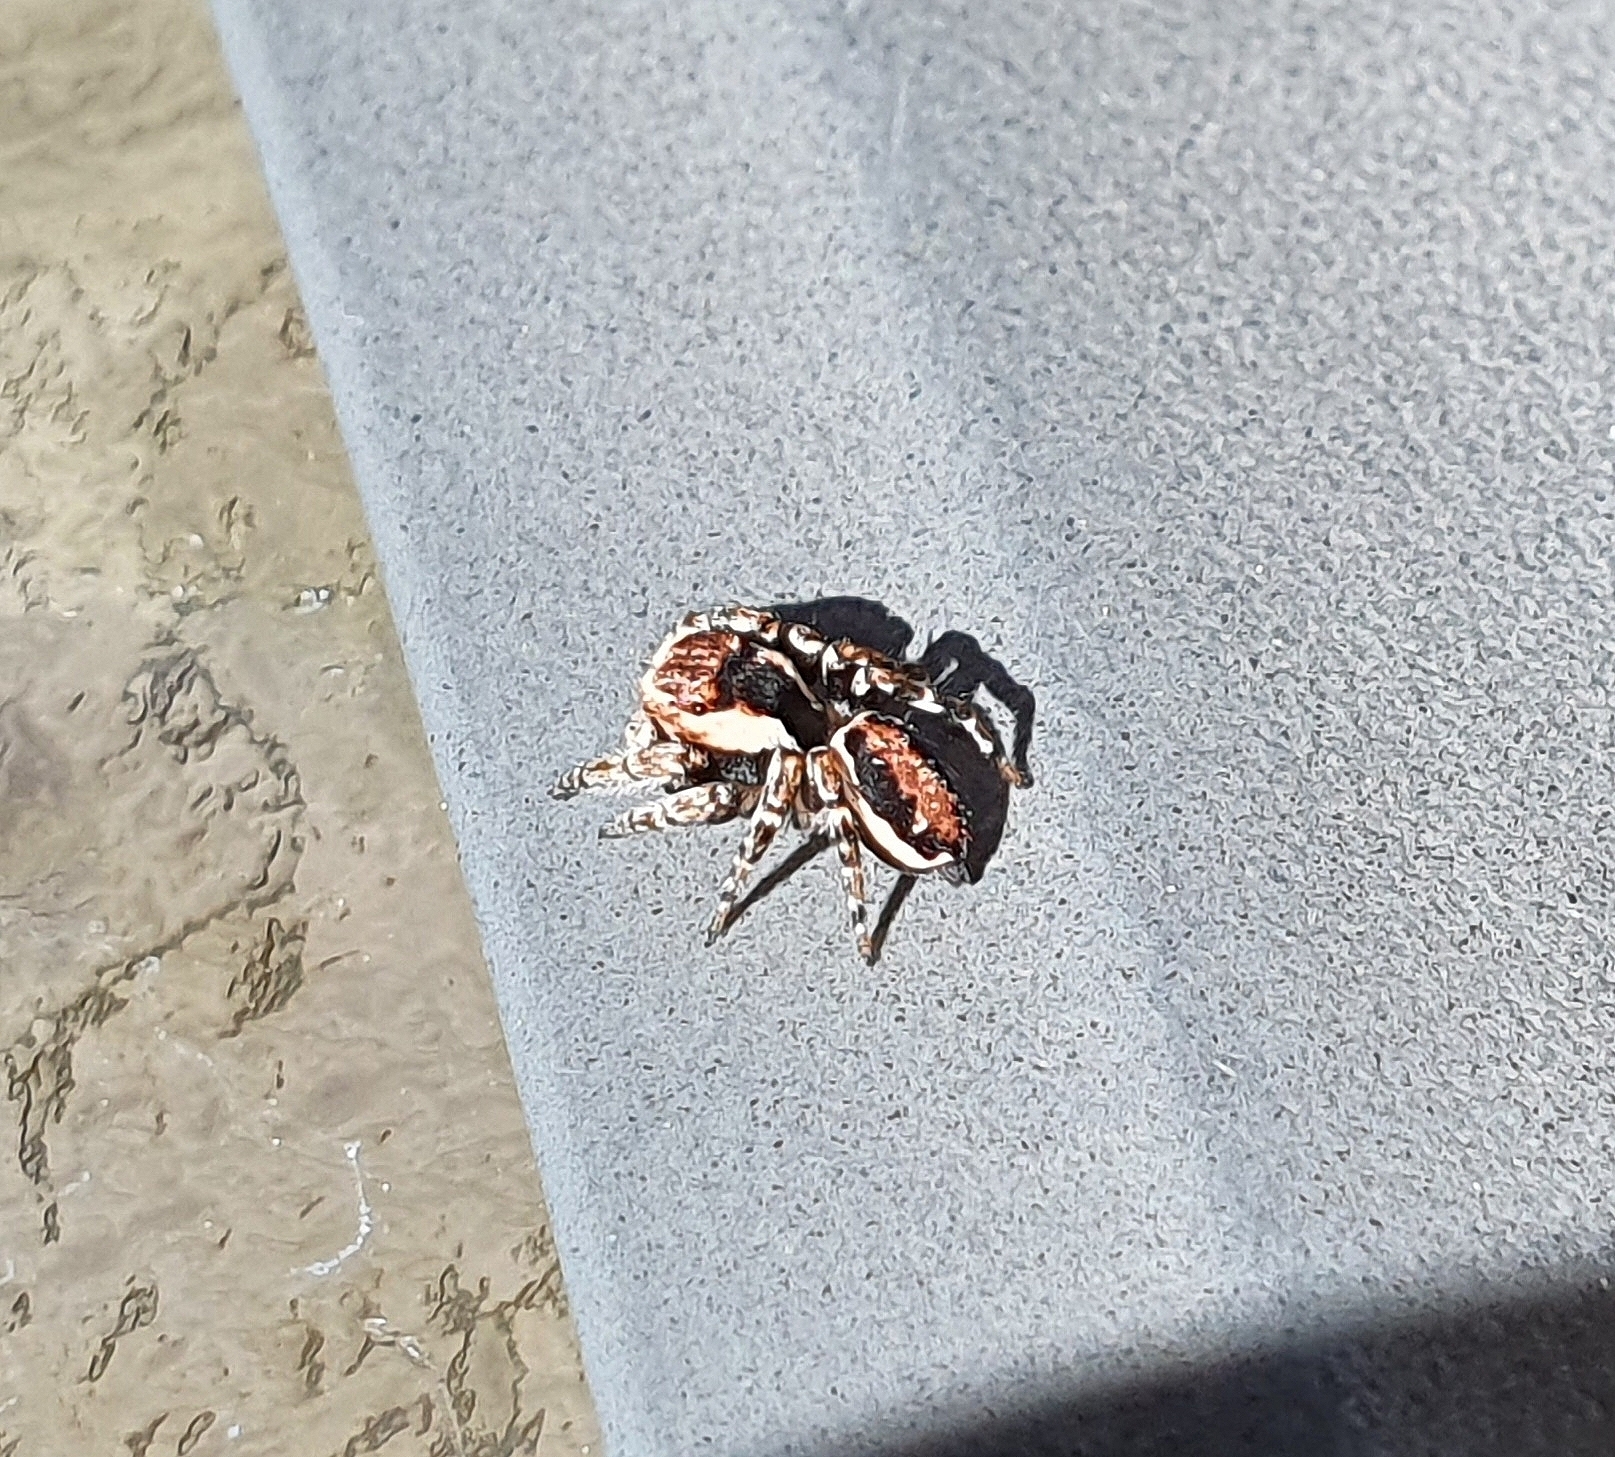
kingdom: Animalia
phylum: Arthropoda
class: Arachnida
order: Araneae
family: Salticidae
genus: Evarcha
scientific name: Evarcha falcata
